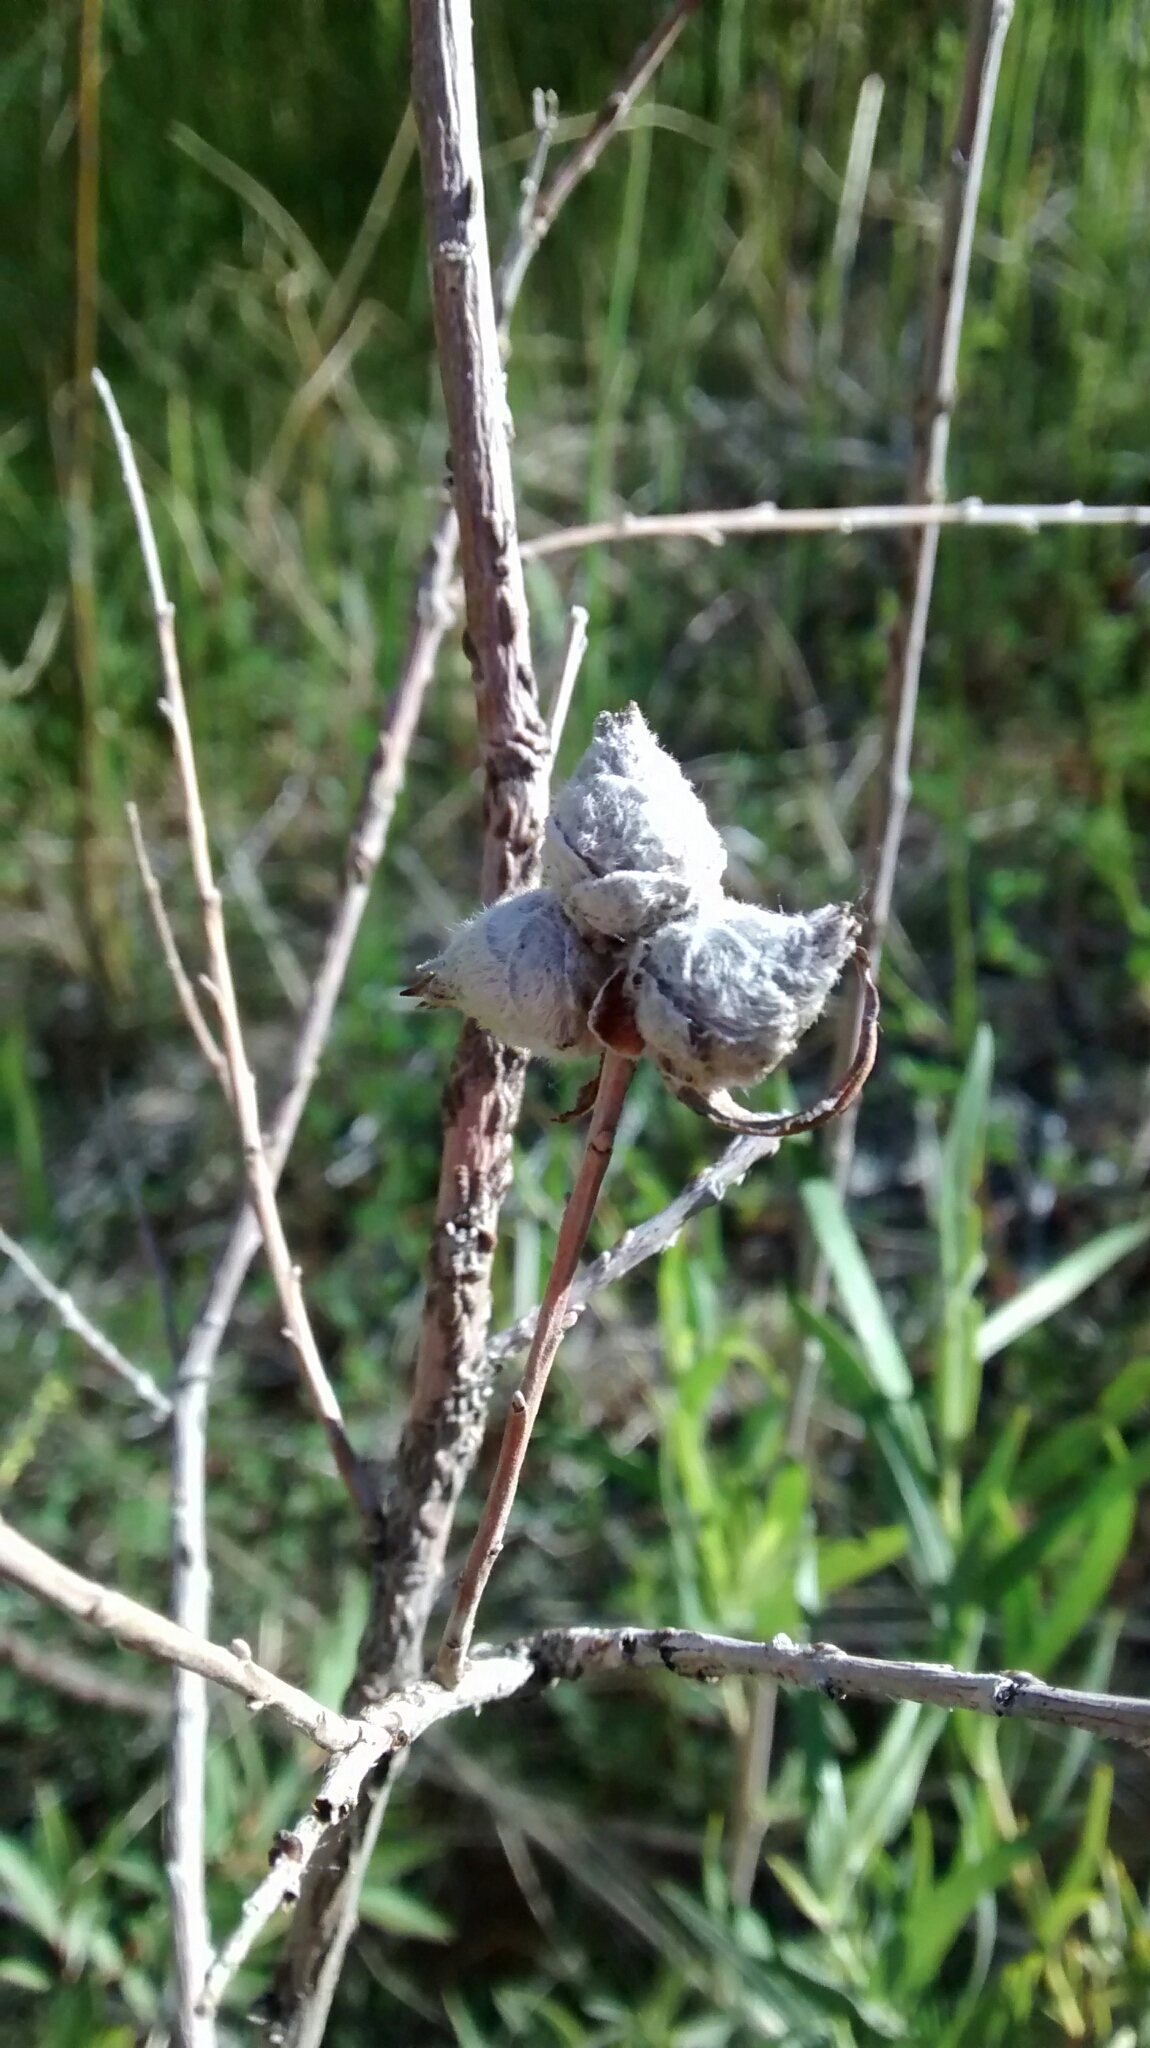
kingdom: Animalia
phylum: Arthropoda
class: Insecta
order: Diptera
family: Cecidomyiidae
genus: Rabdophaga
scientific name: Rabdophaga strobiloides
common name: Willow pinecone gall midge
